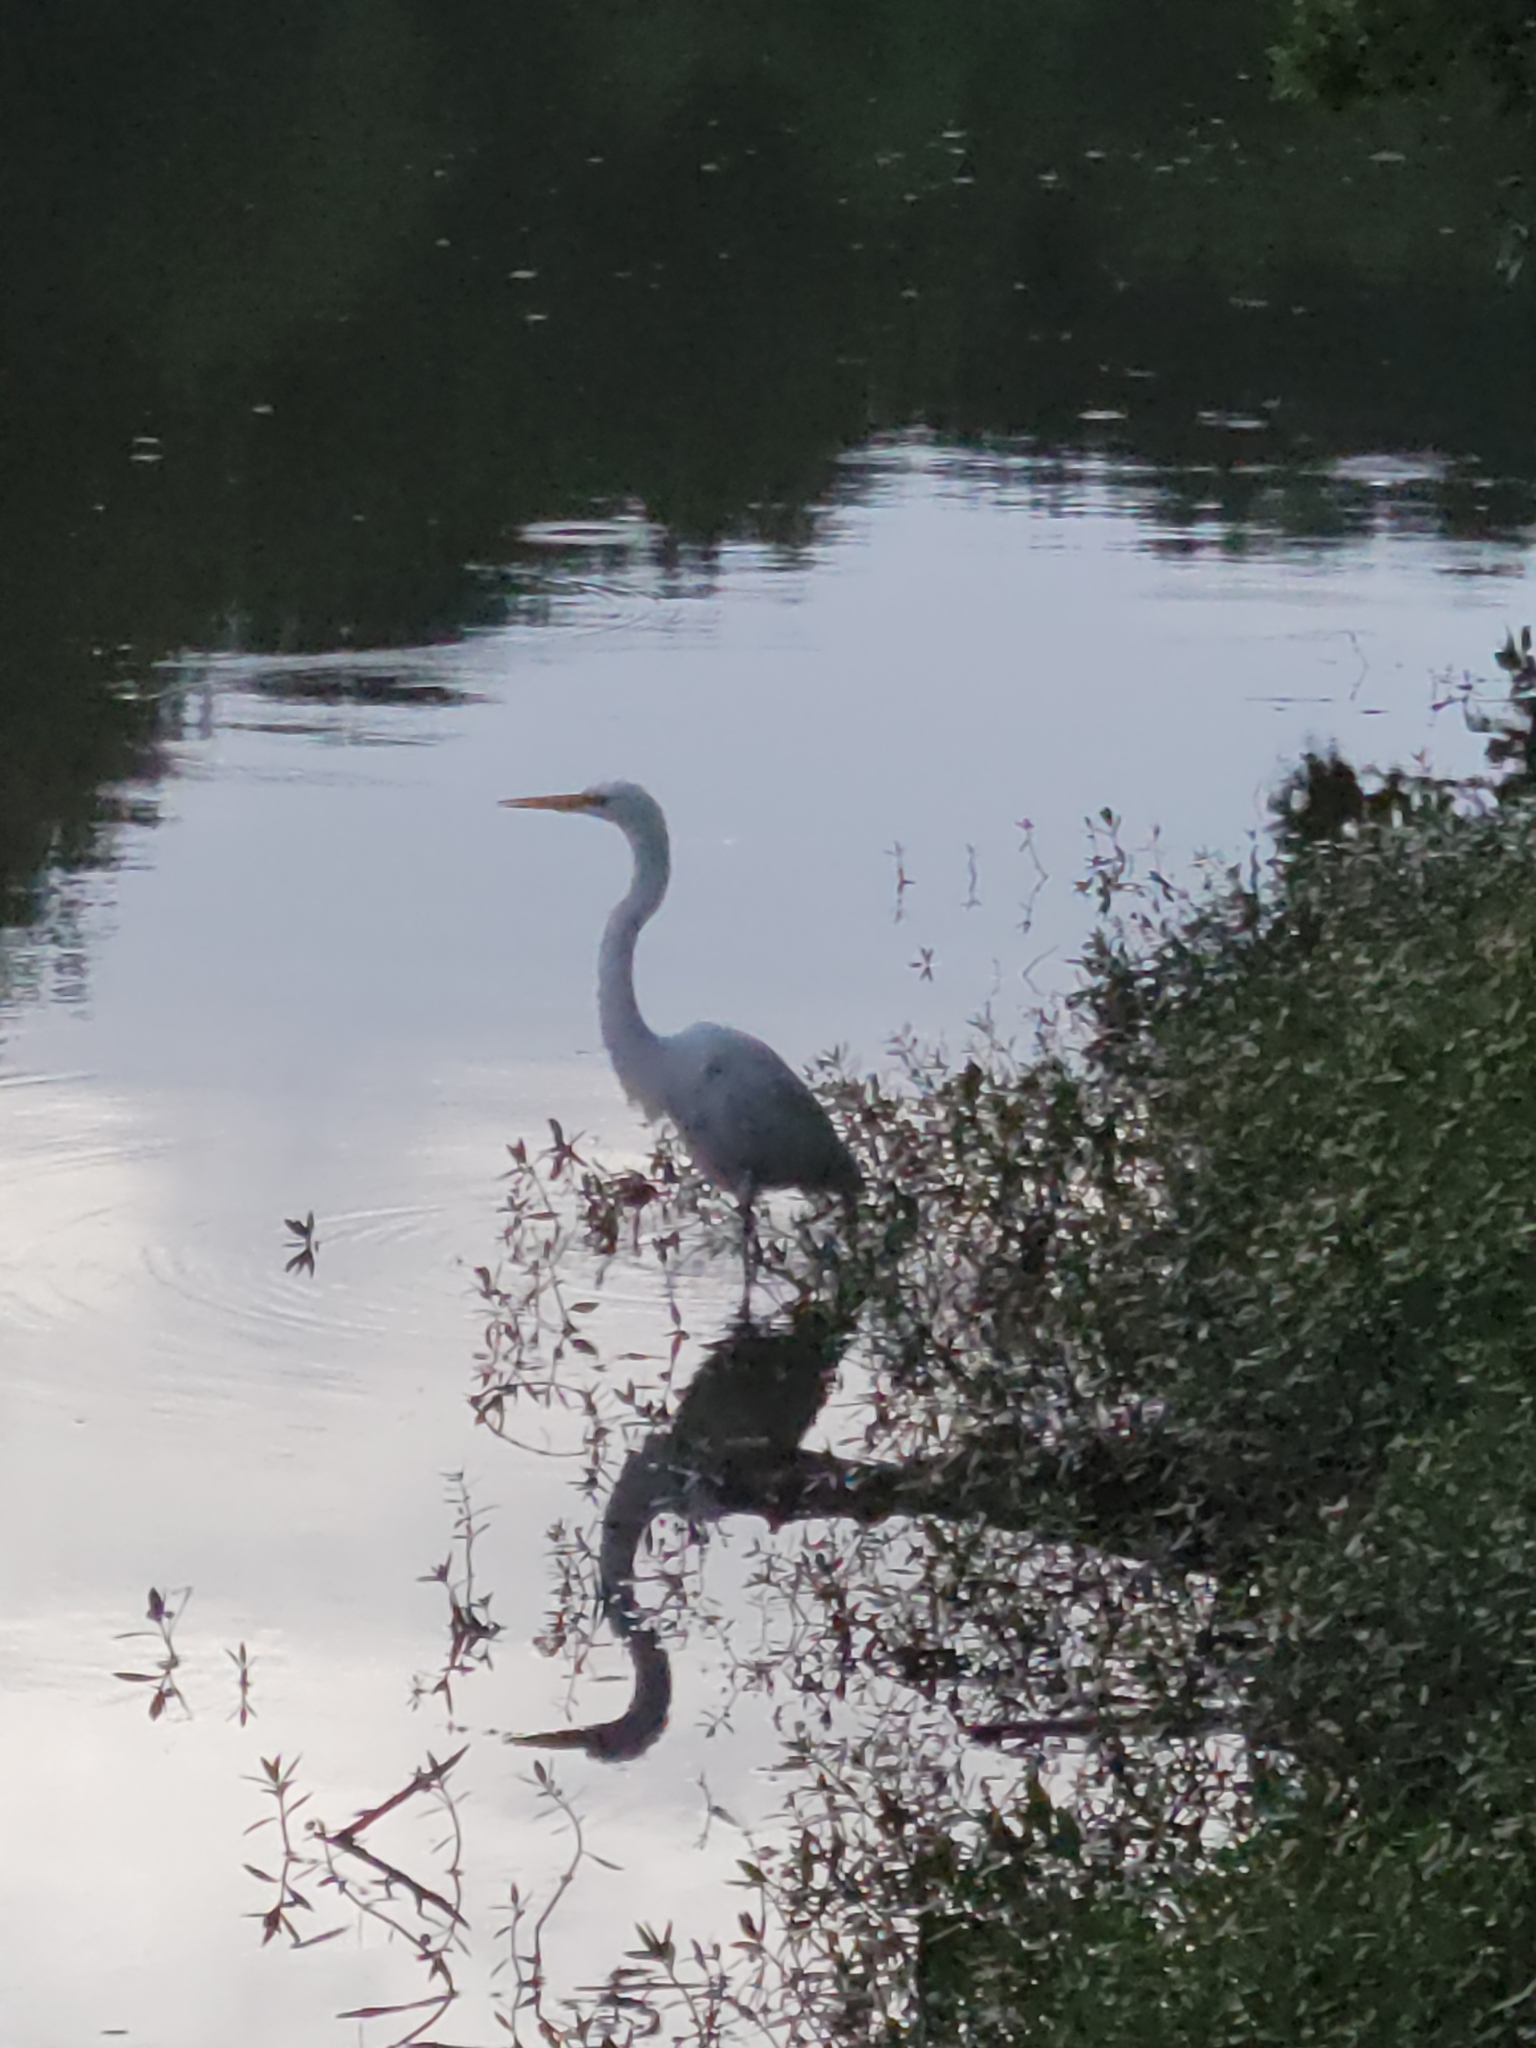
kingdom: Animalia
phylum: Chordata
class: Aves
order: Pelecaniformes
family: Ardeidae
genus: Ardea
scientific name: Ardea alba
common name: Great egret
